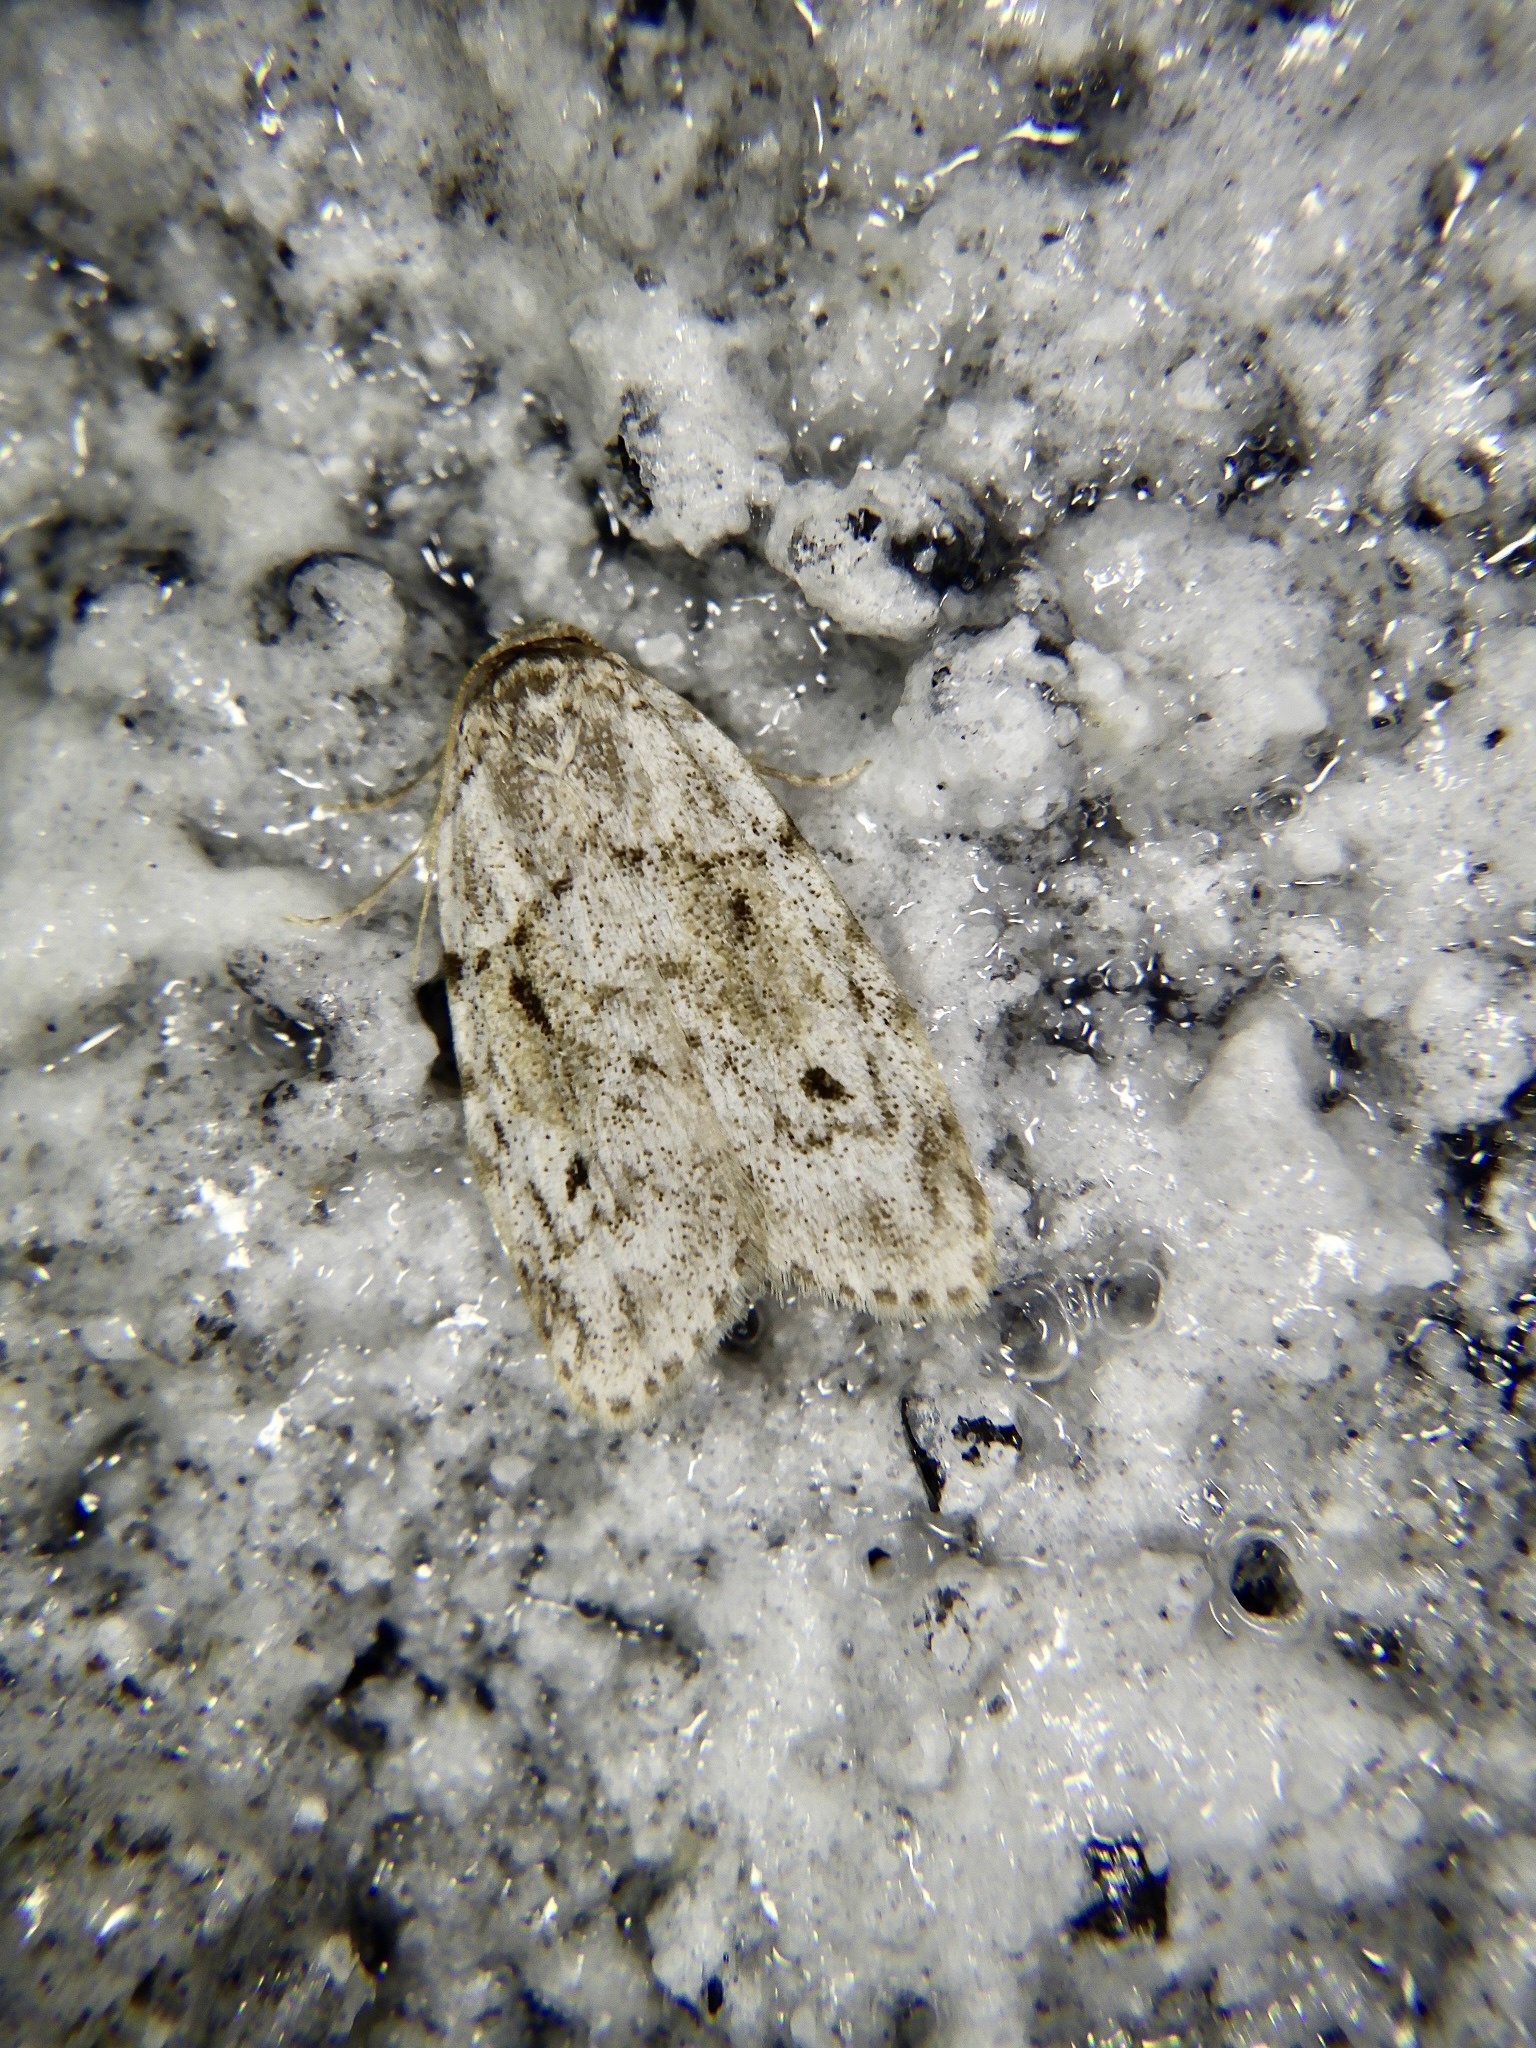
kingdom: Animalia
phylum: Arthropoda
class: Insecta
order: Lepidoptera
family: Erebidae
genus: Siccia
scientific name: Siccia obscura
